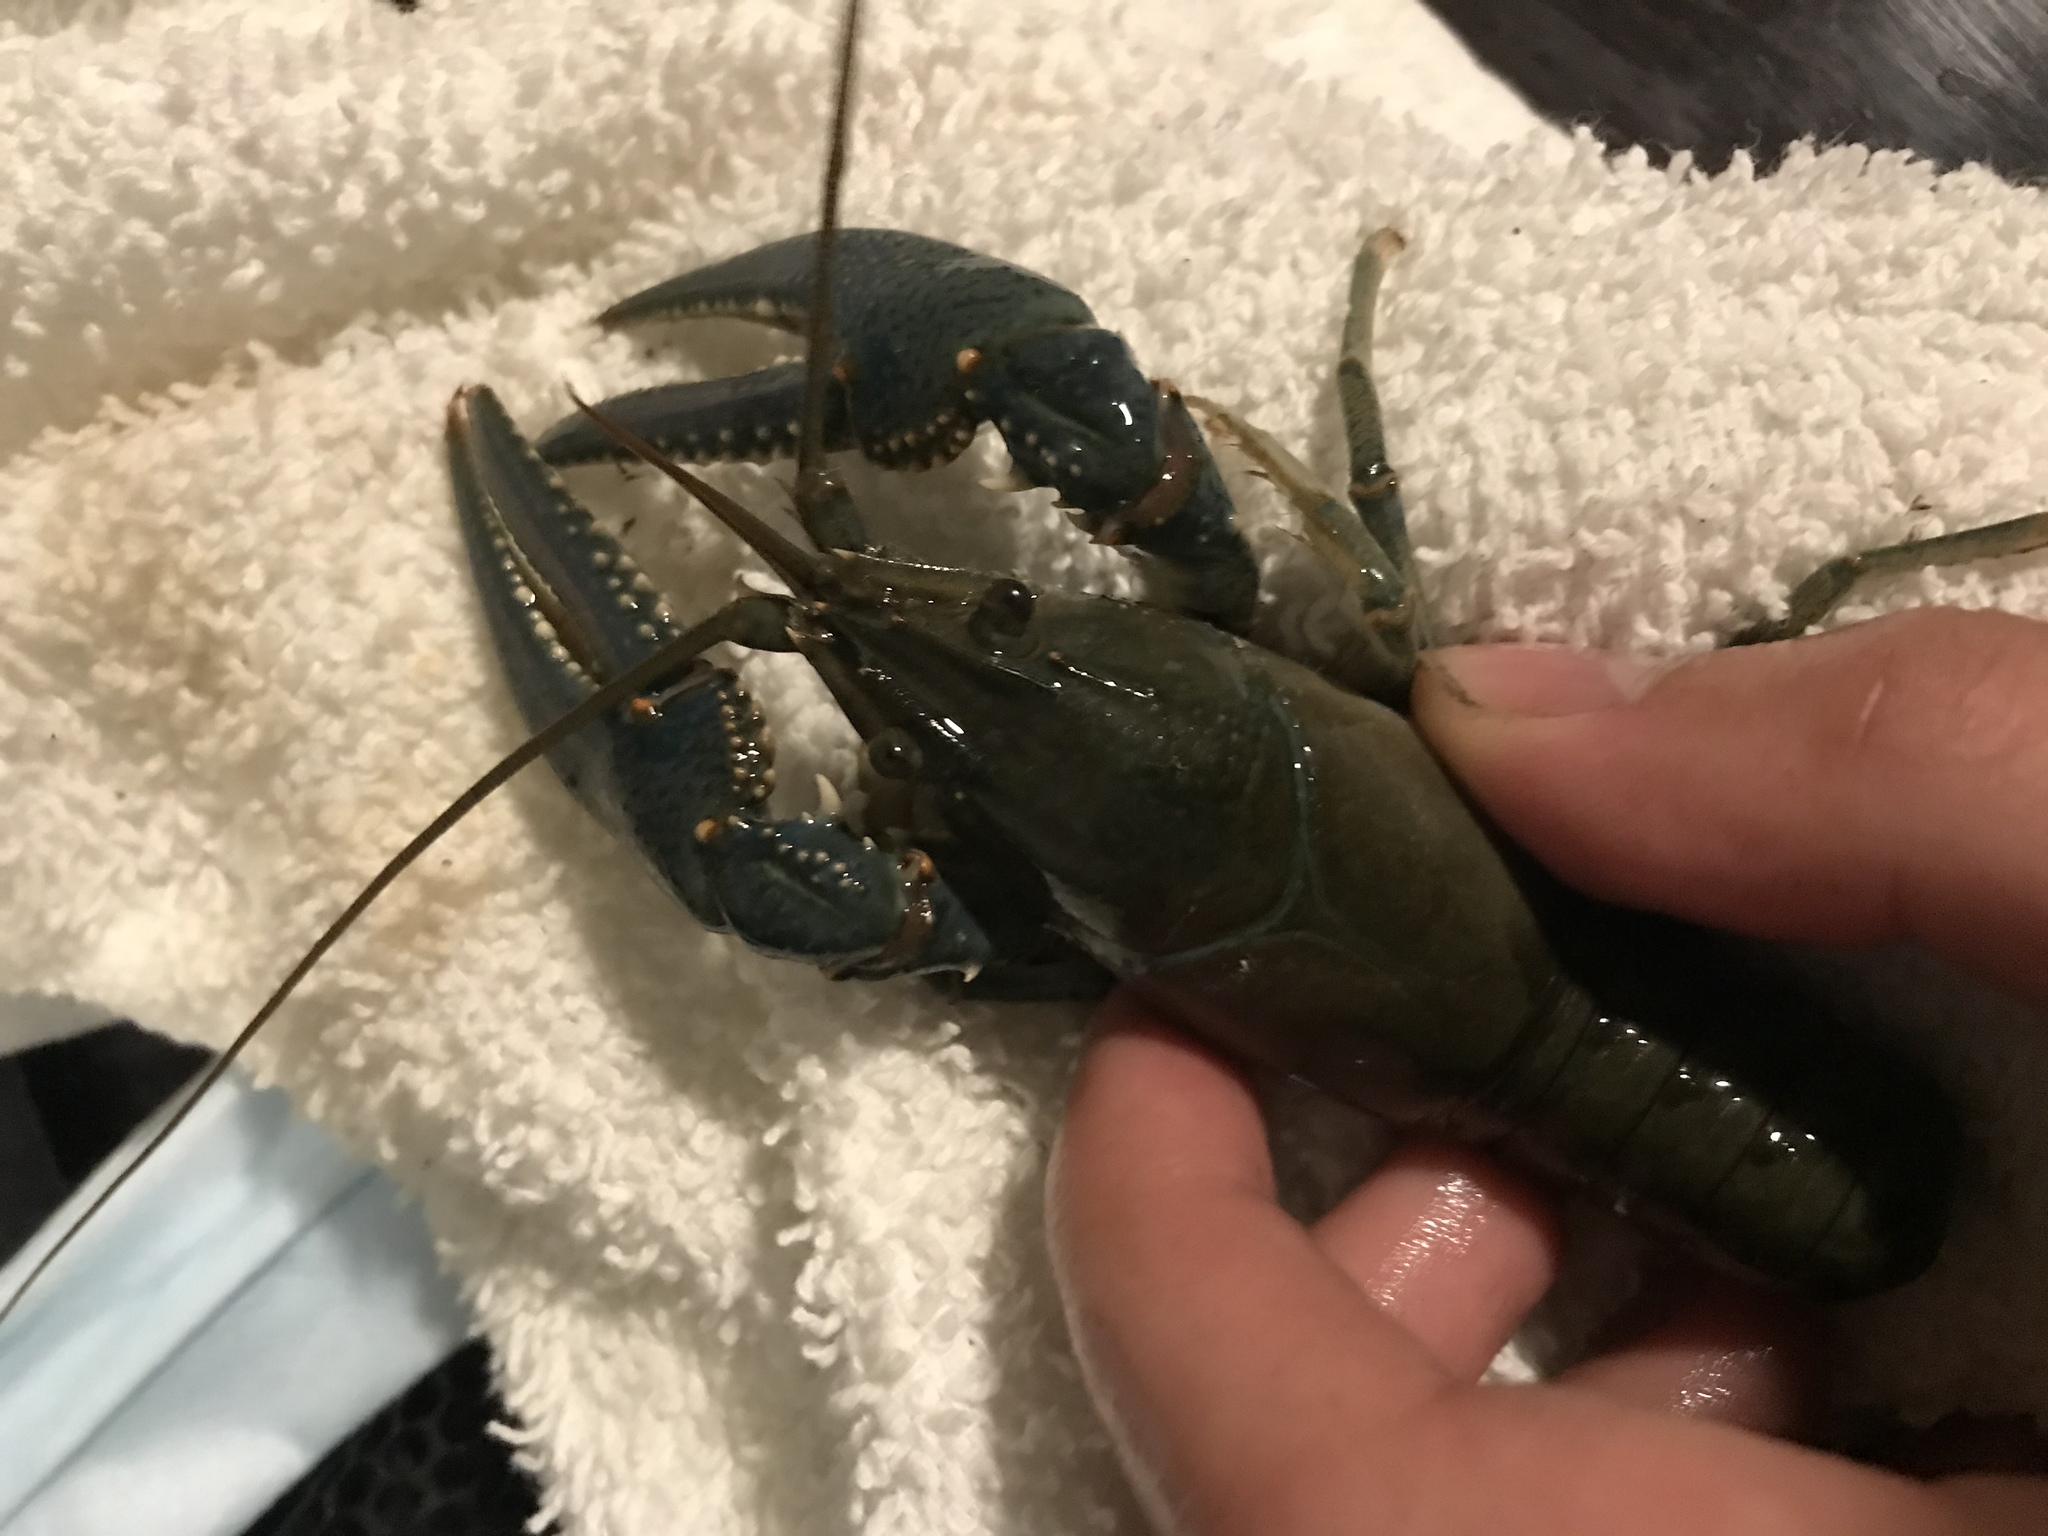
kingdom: Animalia
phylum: Arthropoda
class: Malacostraca
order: Decapoda
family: Cambaridae
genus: Faxonius
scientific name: Faxonius virilis
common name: Virile crayfish
